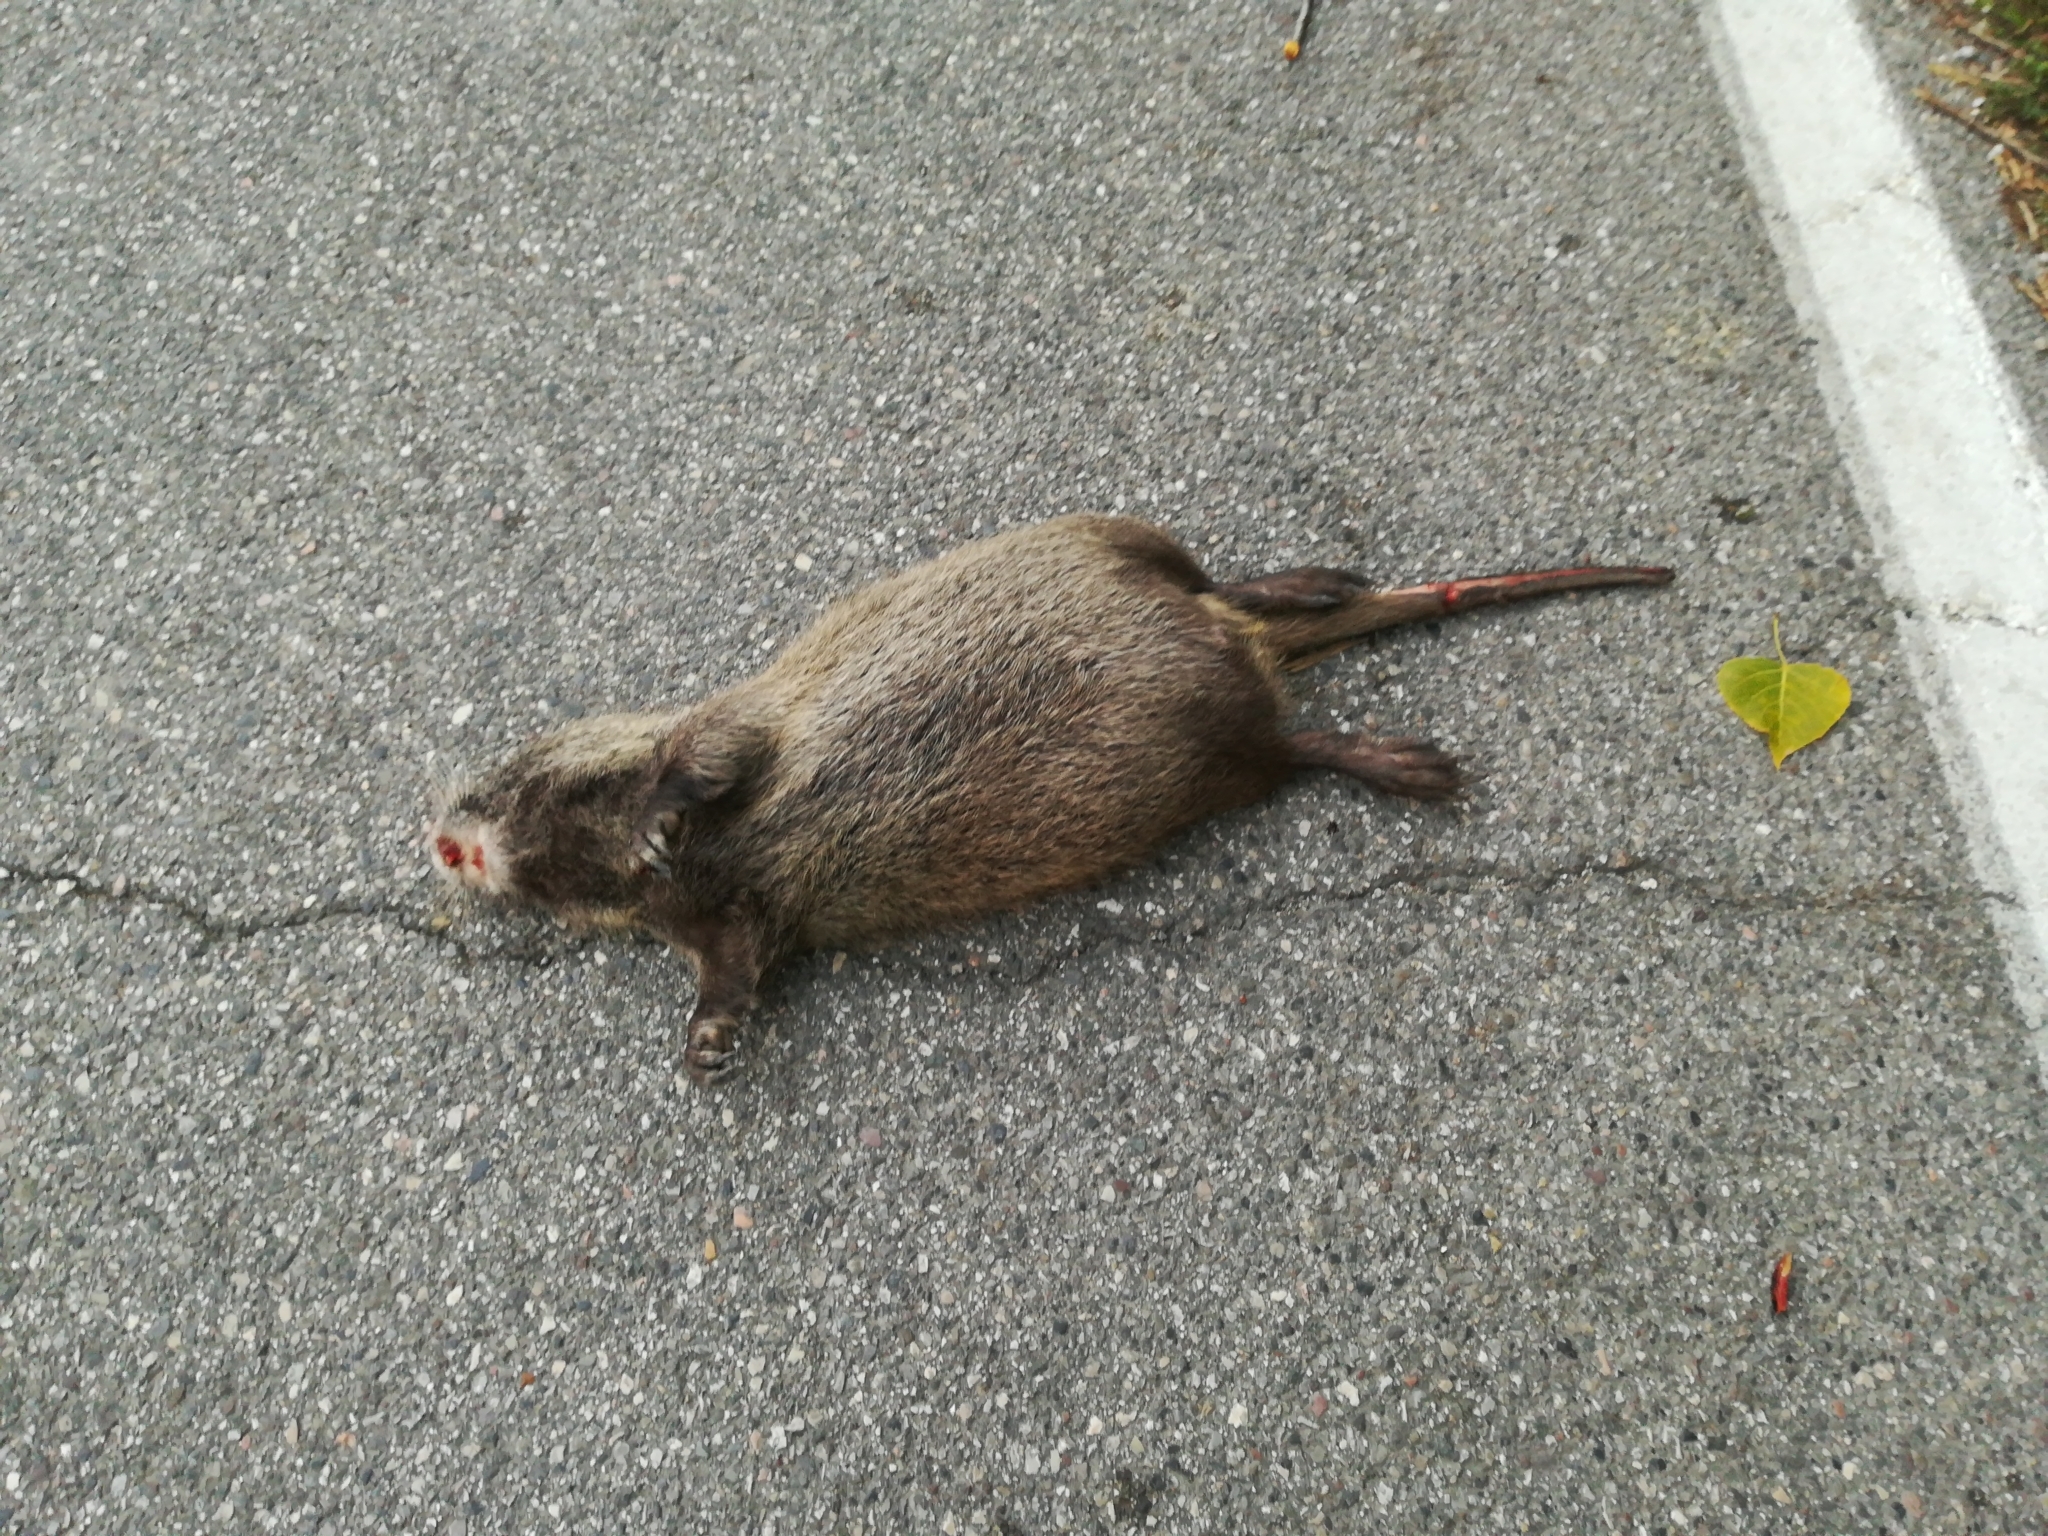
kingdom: Animalia
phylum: Chordata
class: Mammalia
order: Rodentia
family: Myocastoridae
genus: Myocastor
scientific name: Myocastor coypus
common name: Coypu
